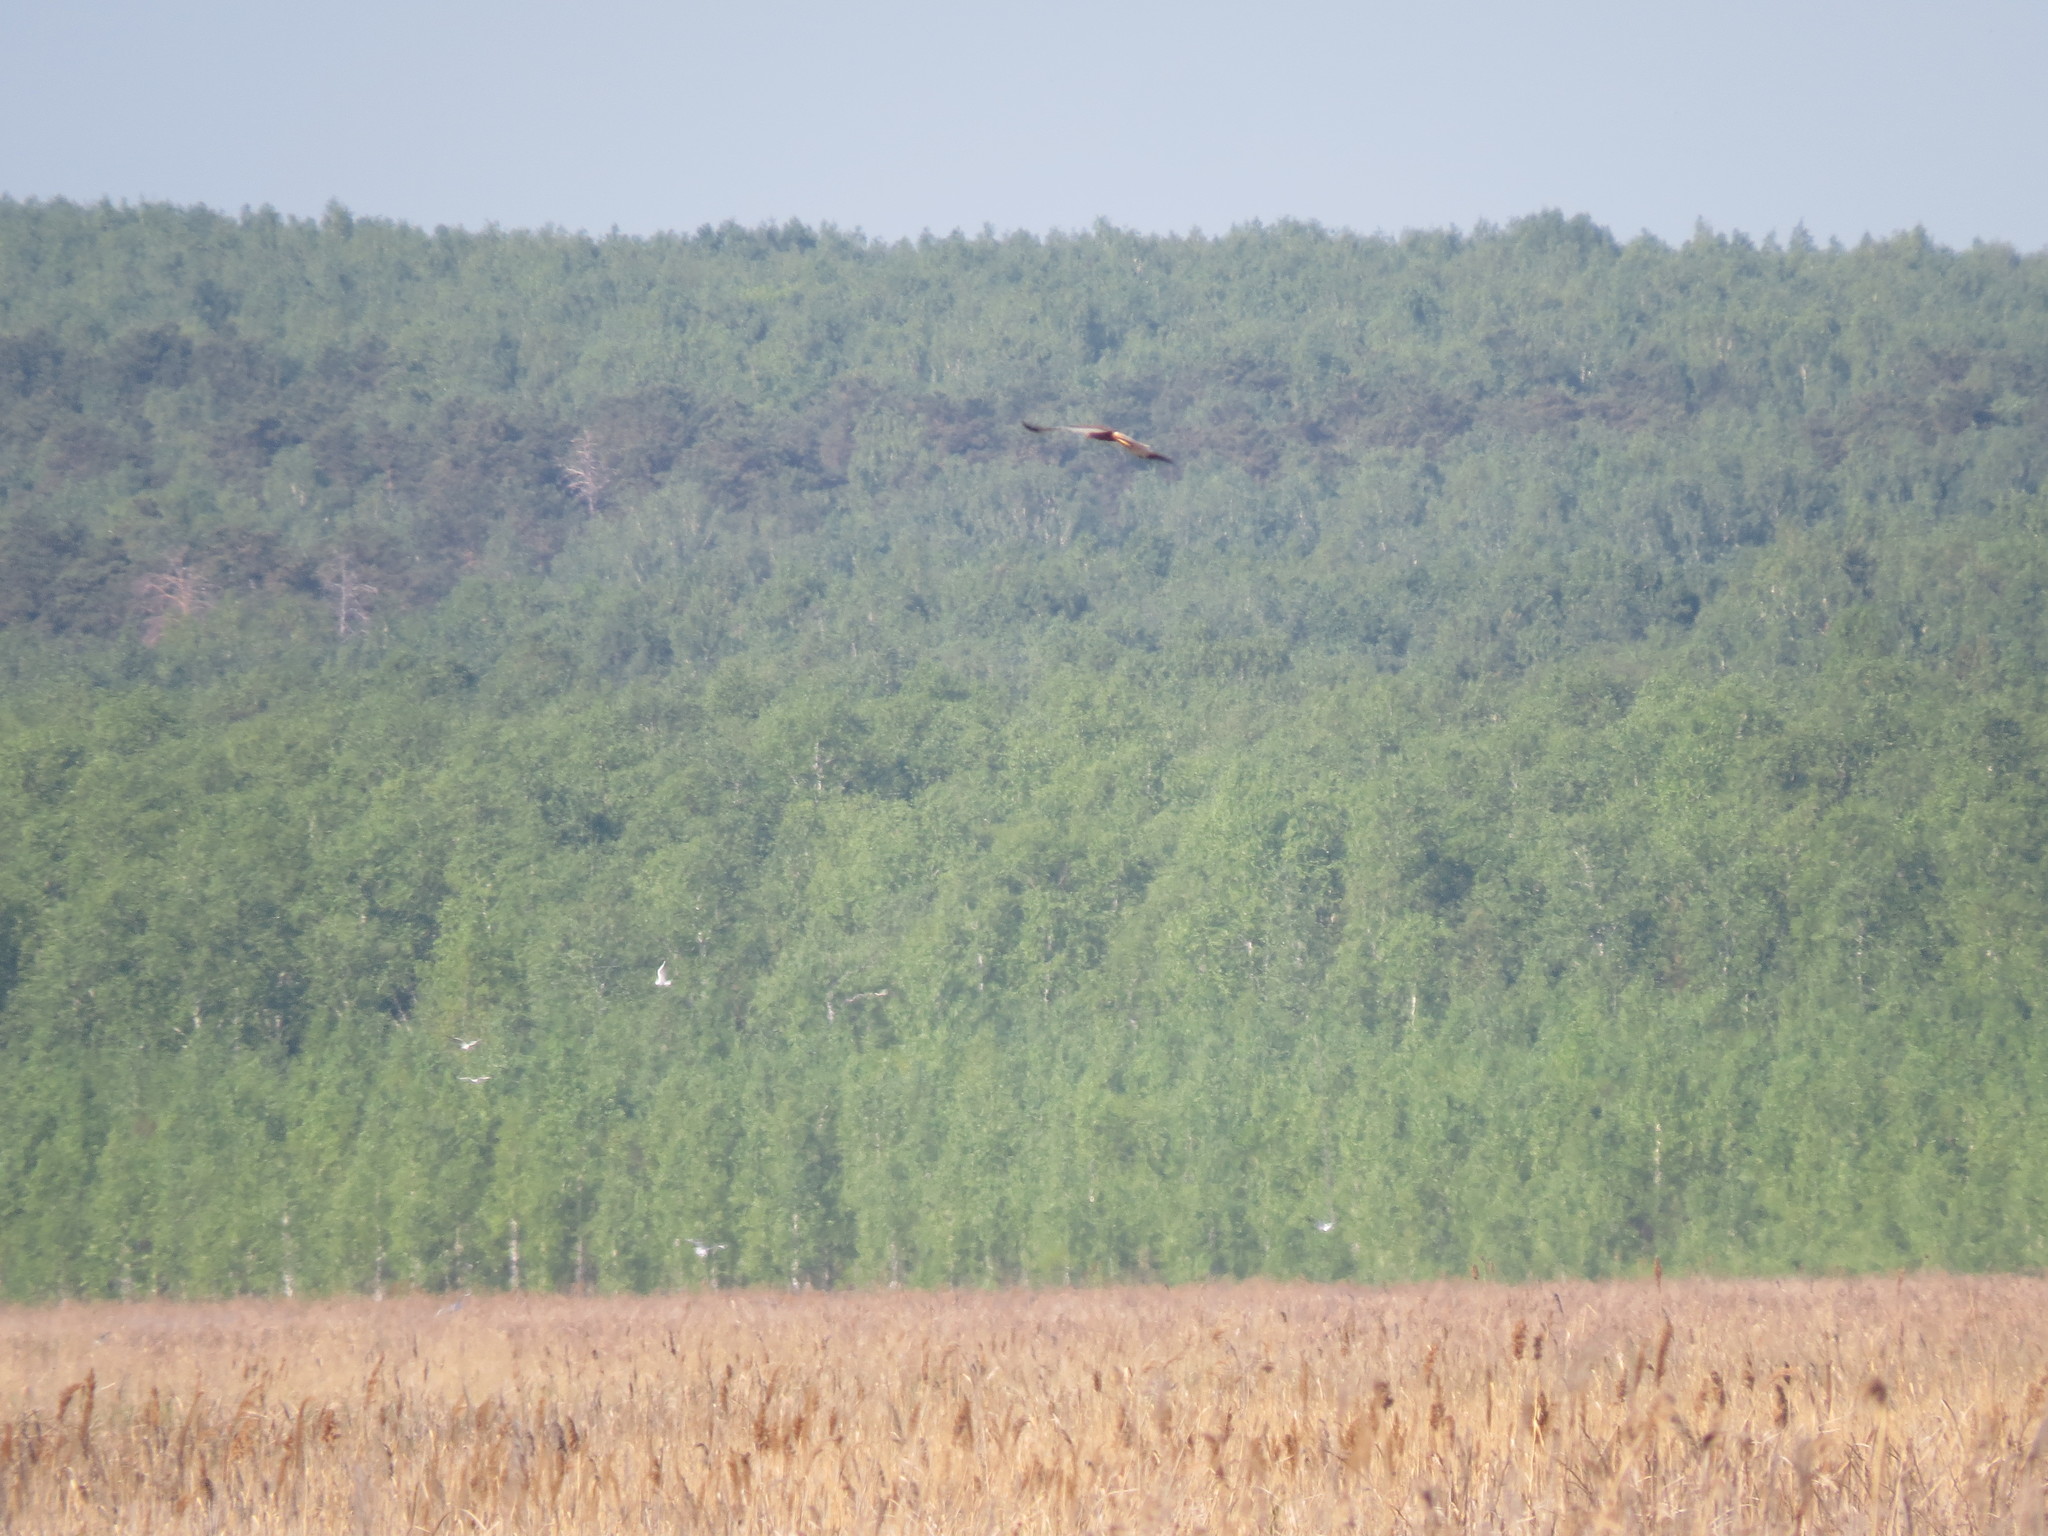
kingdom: Animalia
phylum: Chordata
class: Aves
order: Accipitriformes
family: Accipitridae
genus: Circus
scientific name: Circus aeruginosus
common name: Western marsh harrier
